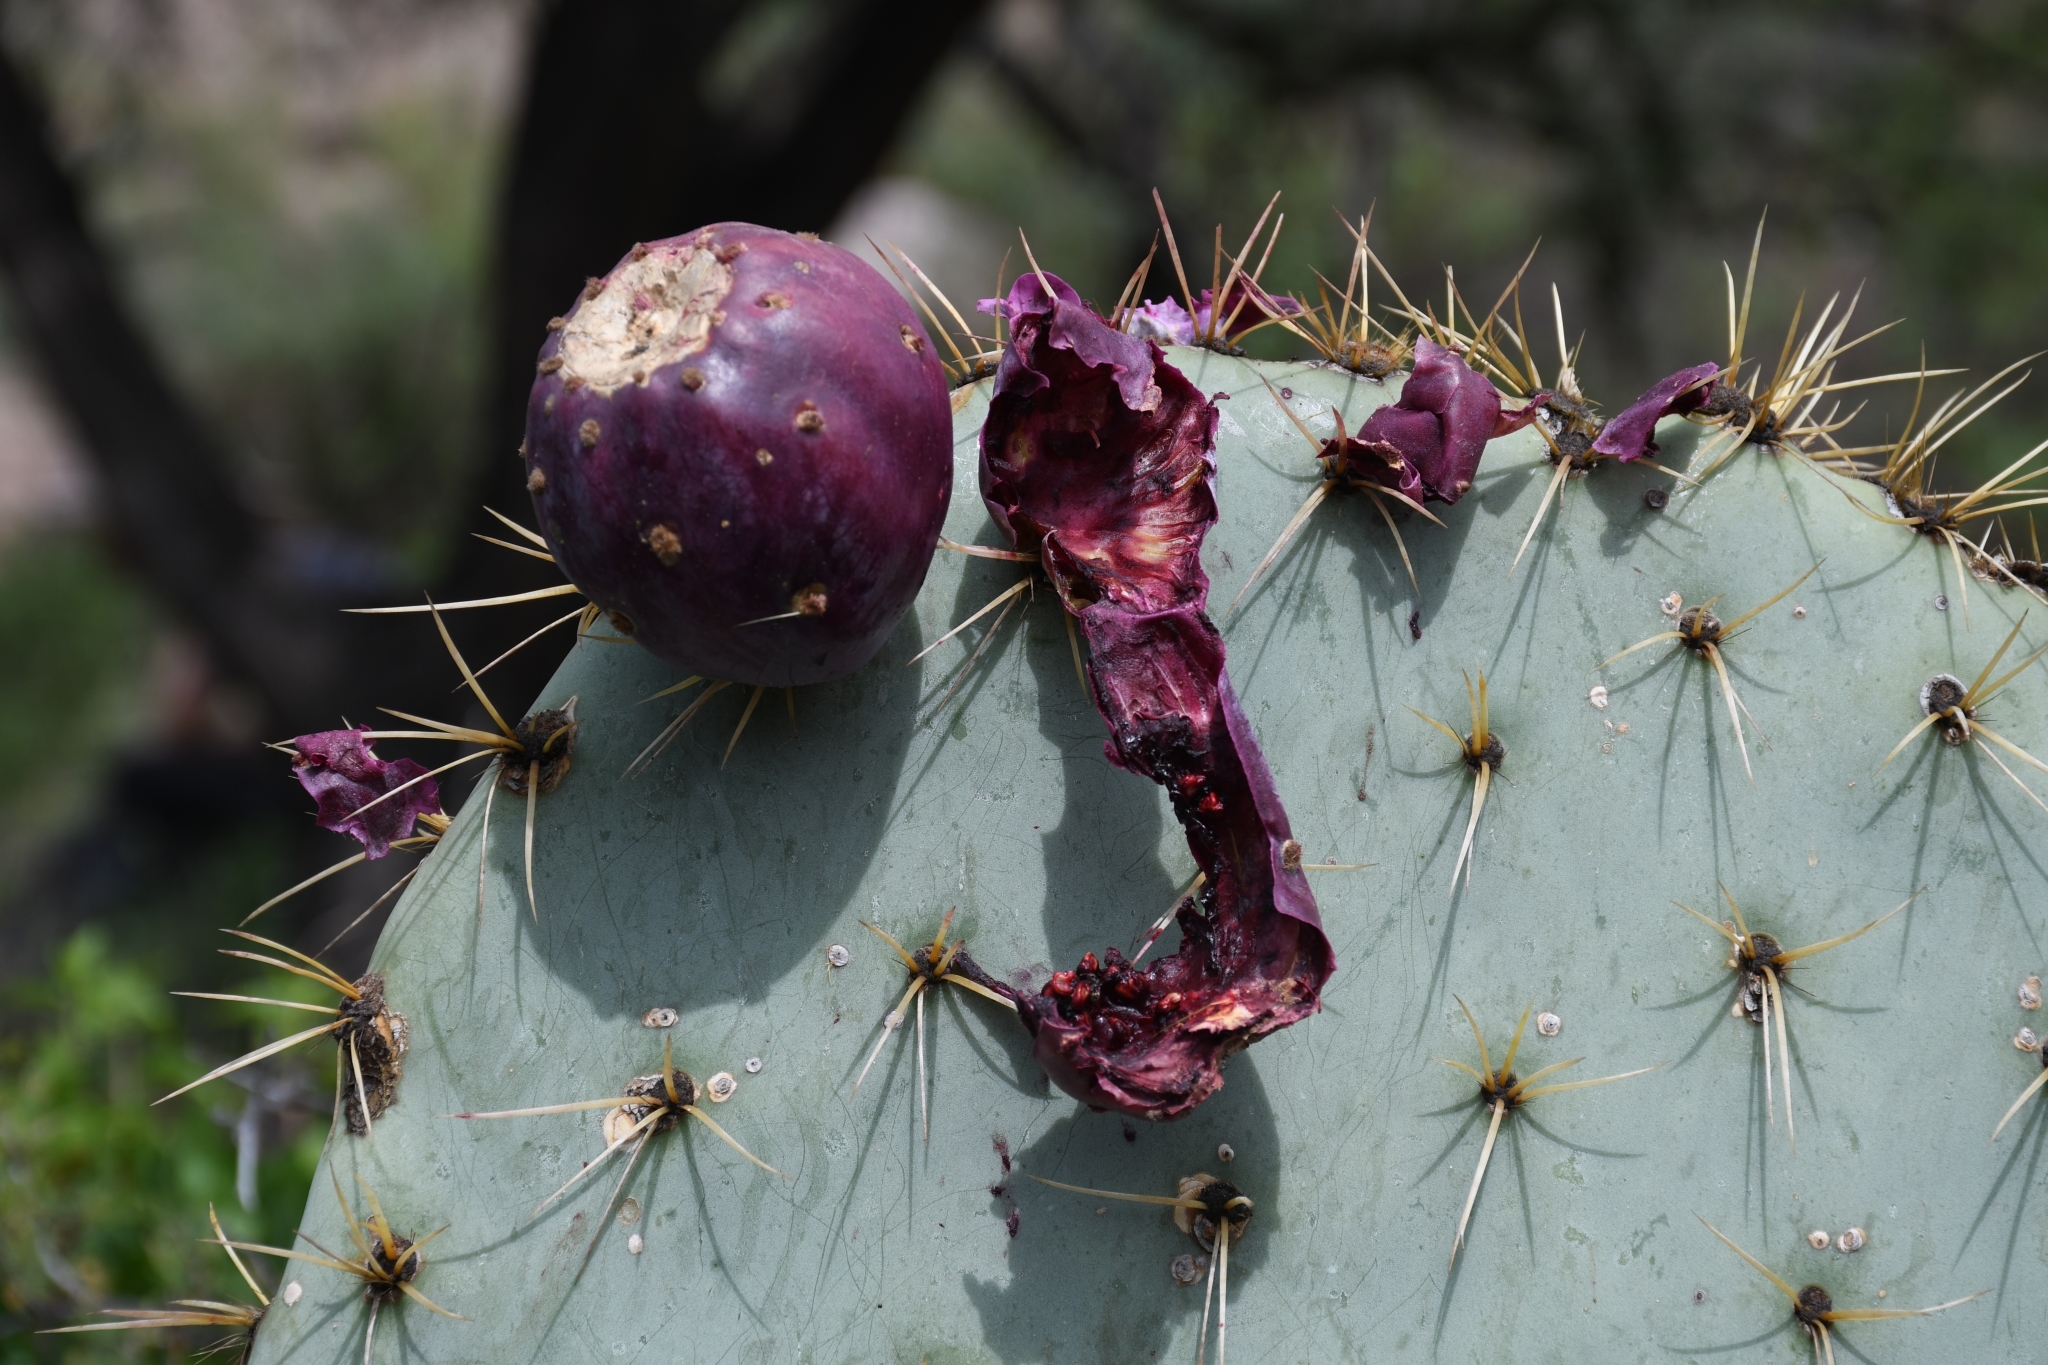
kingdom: Plantae
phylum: Tracheophyta
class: Magnoliopsida
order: Caryophyllales
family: Cactaceae
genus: Opuntia
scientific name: Opuntia robusta
